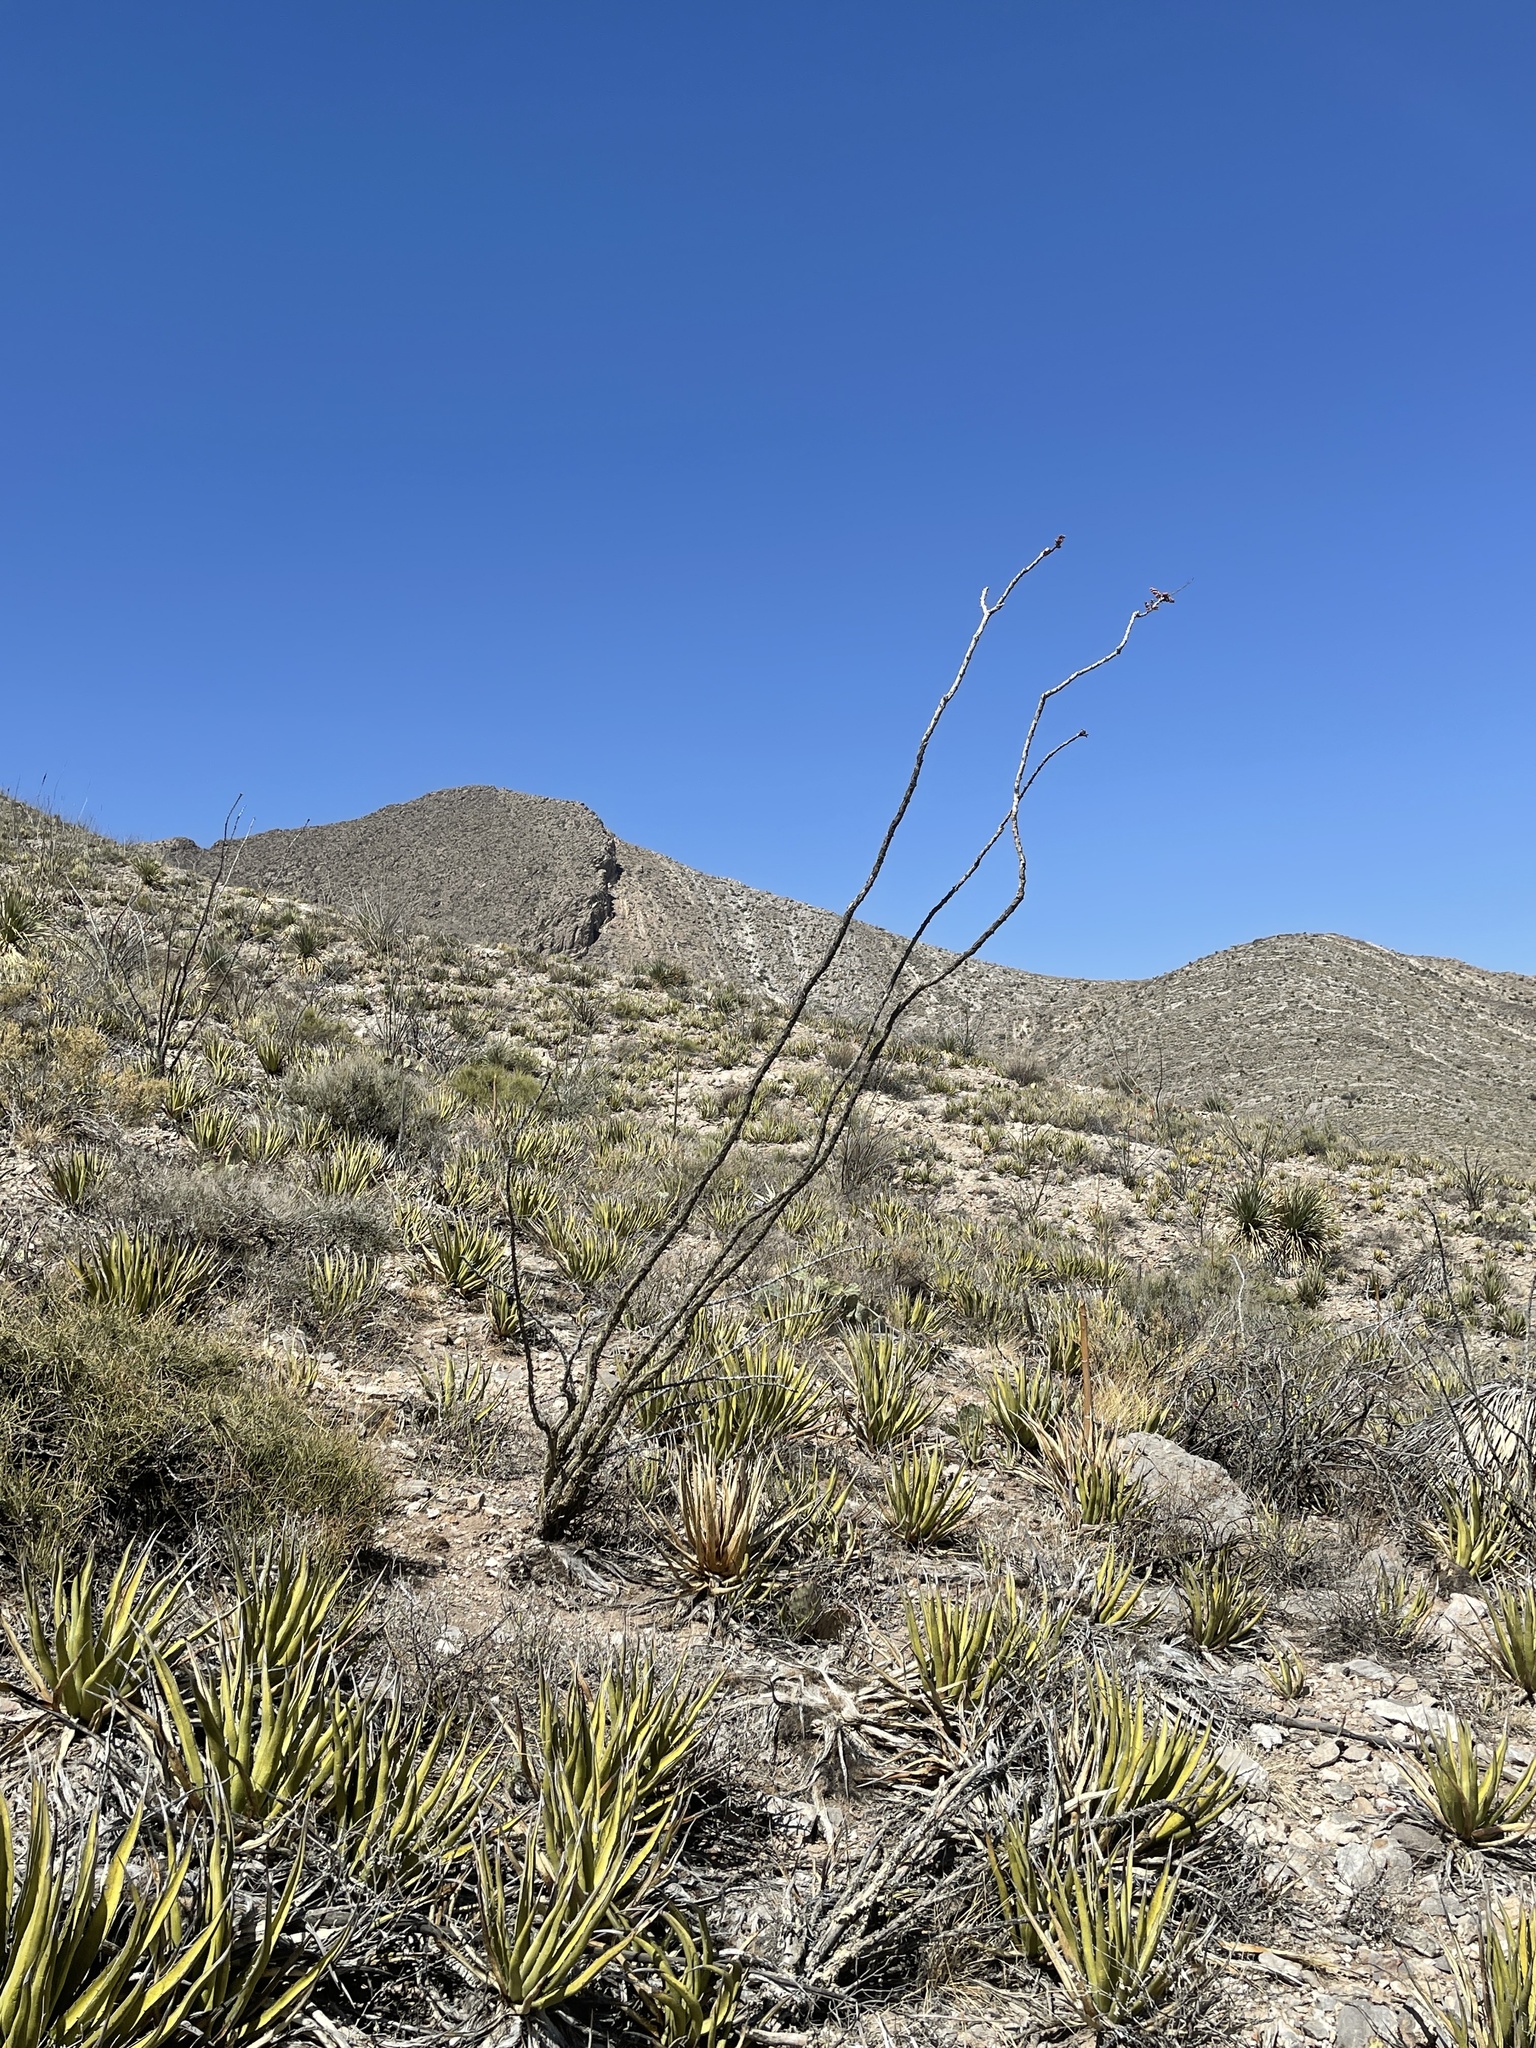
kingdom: Plantae
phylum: Tracheophyta
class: Magnoliopsida
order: Ericales
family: Fouquieriaceae
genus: Fouquieria
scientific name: Fouquieria splendens
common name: Vine-cactus
